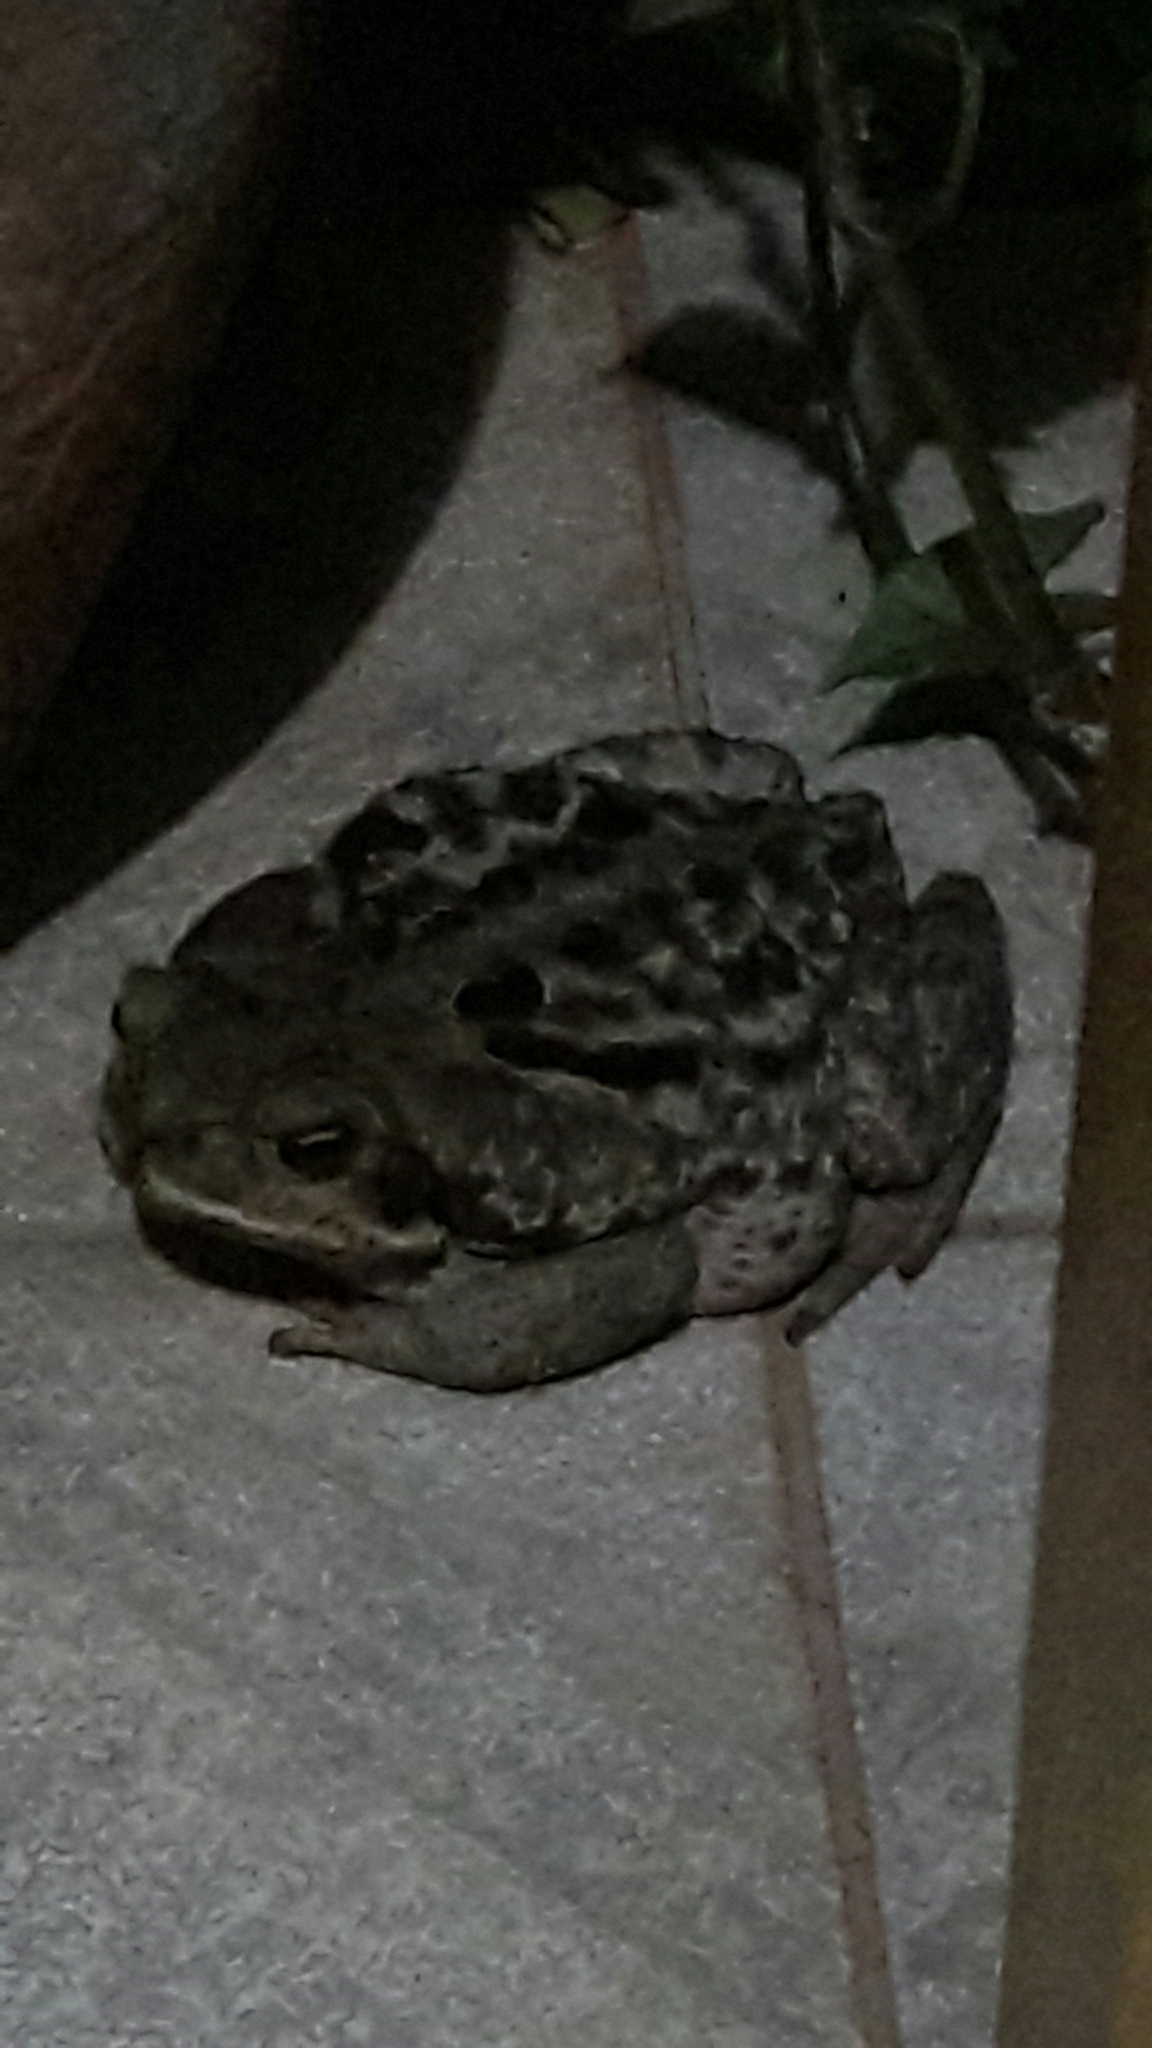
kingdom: Animalia
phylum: Chordata
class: Amphibia
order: Anura
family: Bufonidae
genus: Rhinella
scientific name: Rhinella diptycha
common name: Cope's toad
